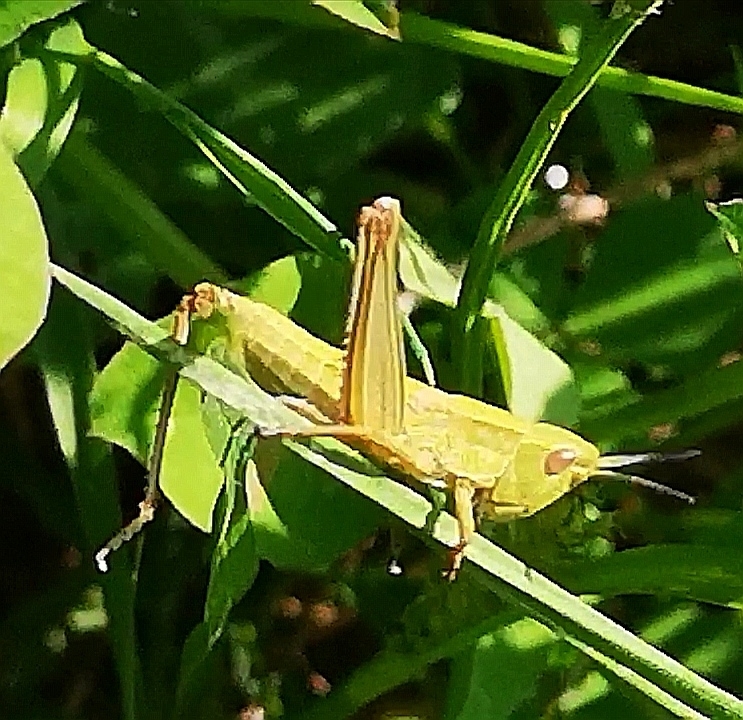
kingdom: Animalia
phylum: Arthropoda
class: Insecta
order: Orthoptera
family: Acrididae
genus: Euthystira
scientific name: Euthystira brachyptera
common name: Small gold grasshopper
